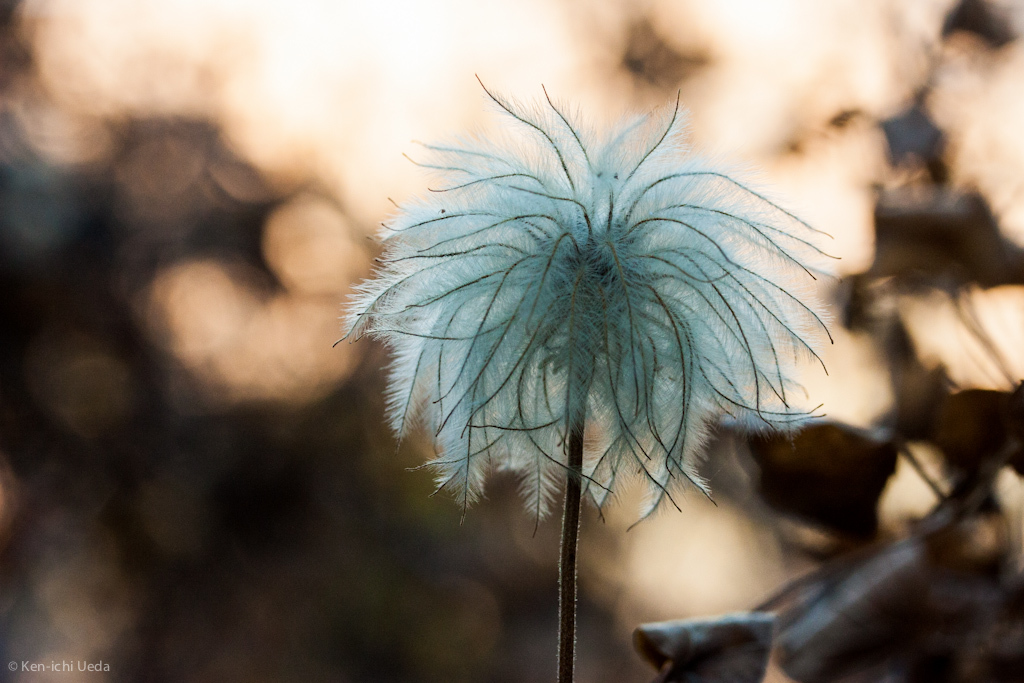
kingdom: Plantae
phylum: Tracheophyta
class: Magnoliopsida
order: Ranunculales
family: Ranunculaceae
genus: Clematis
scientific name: Clematis lasiantha
